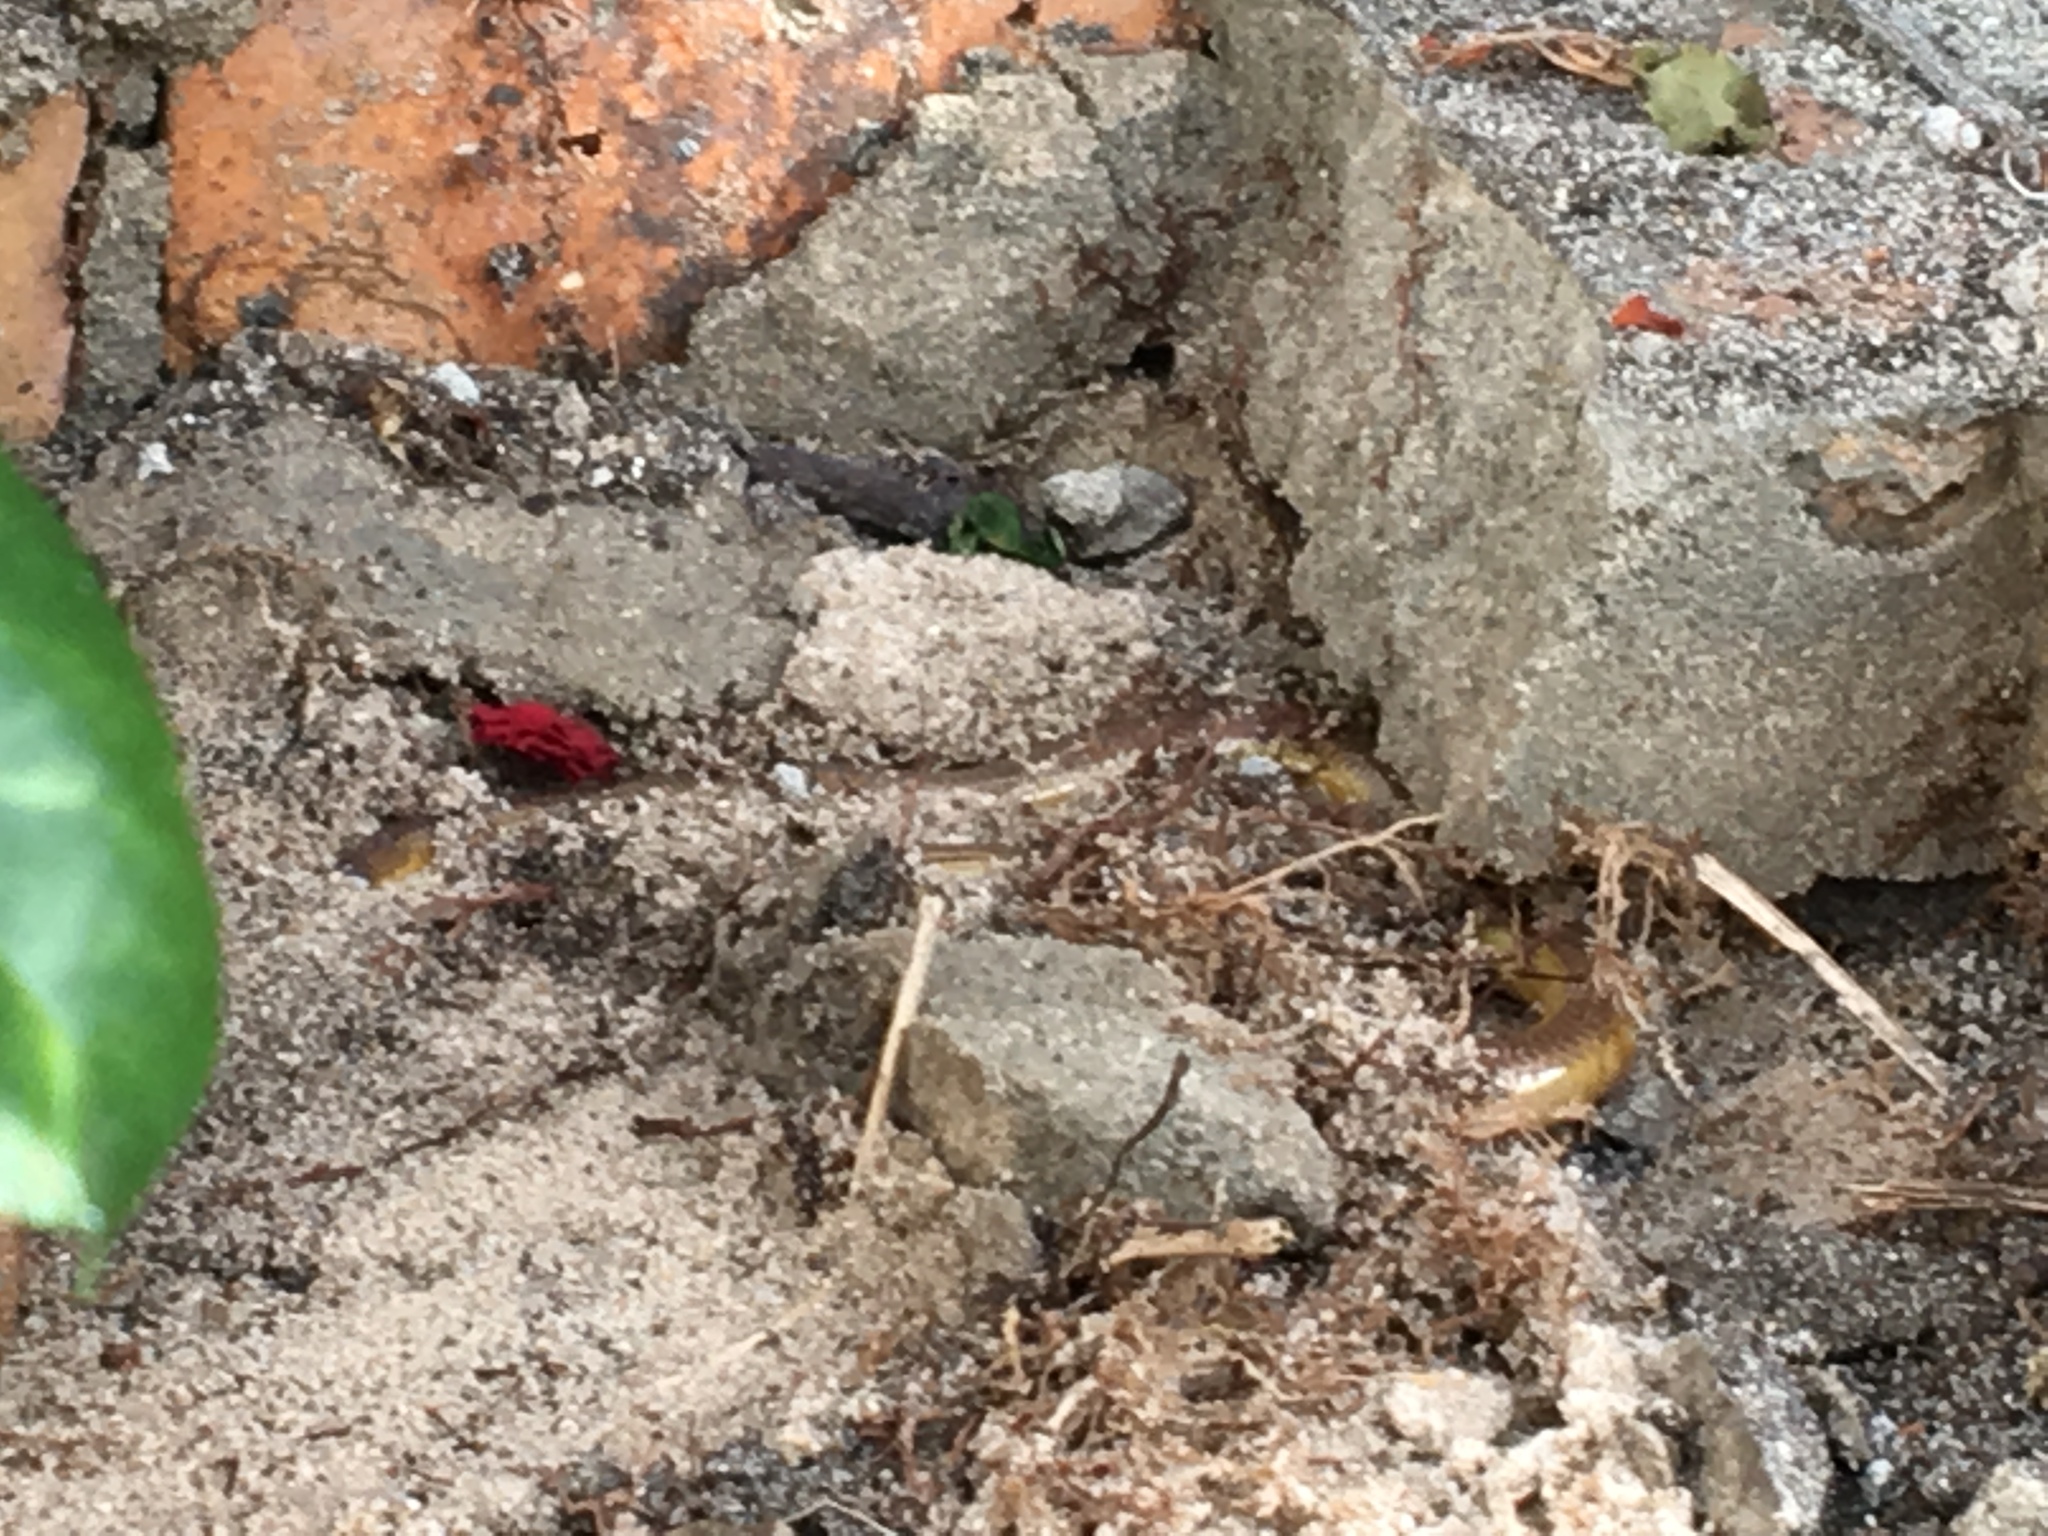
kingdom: Animalia
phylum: Chordata
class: Squamata
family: Scincidae
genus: Acontias
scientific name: Acontias meleagris
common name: Cape legless skink
